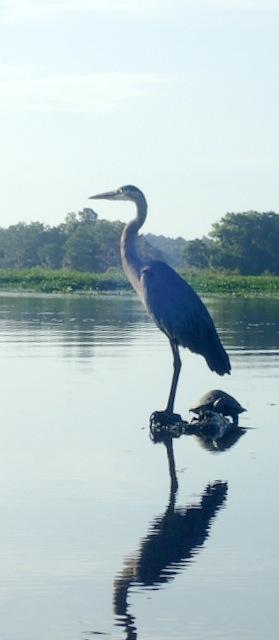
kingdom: Animalia
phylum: Chordata
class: Aves
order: Pelecaniformes
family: Ardeidae
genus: Ardea
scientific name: Ardea herodias
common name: Great blue heron
